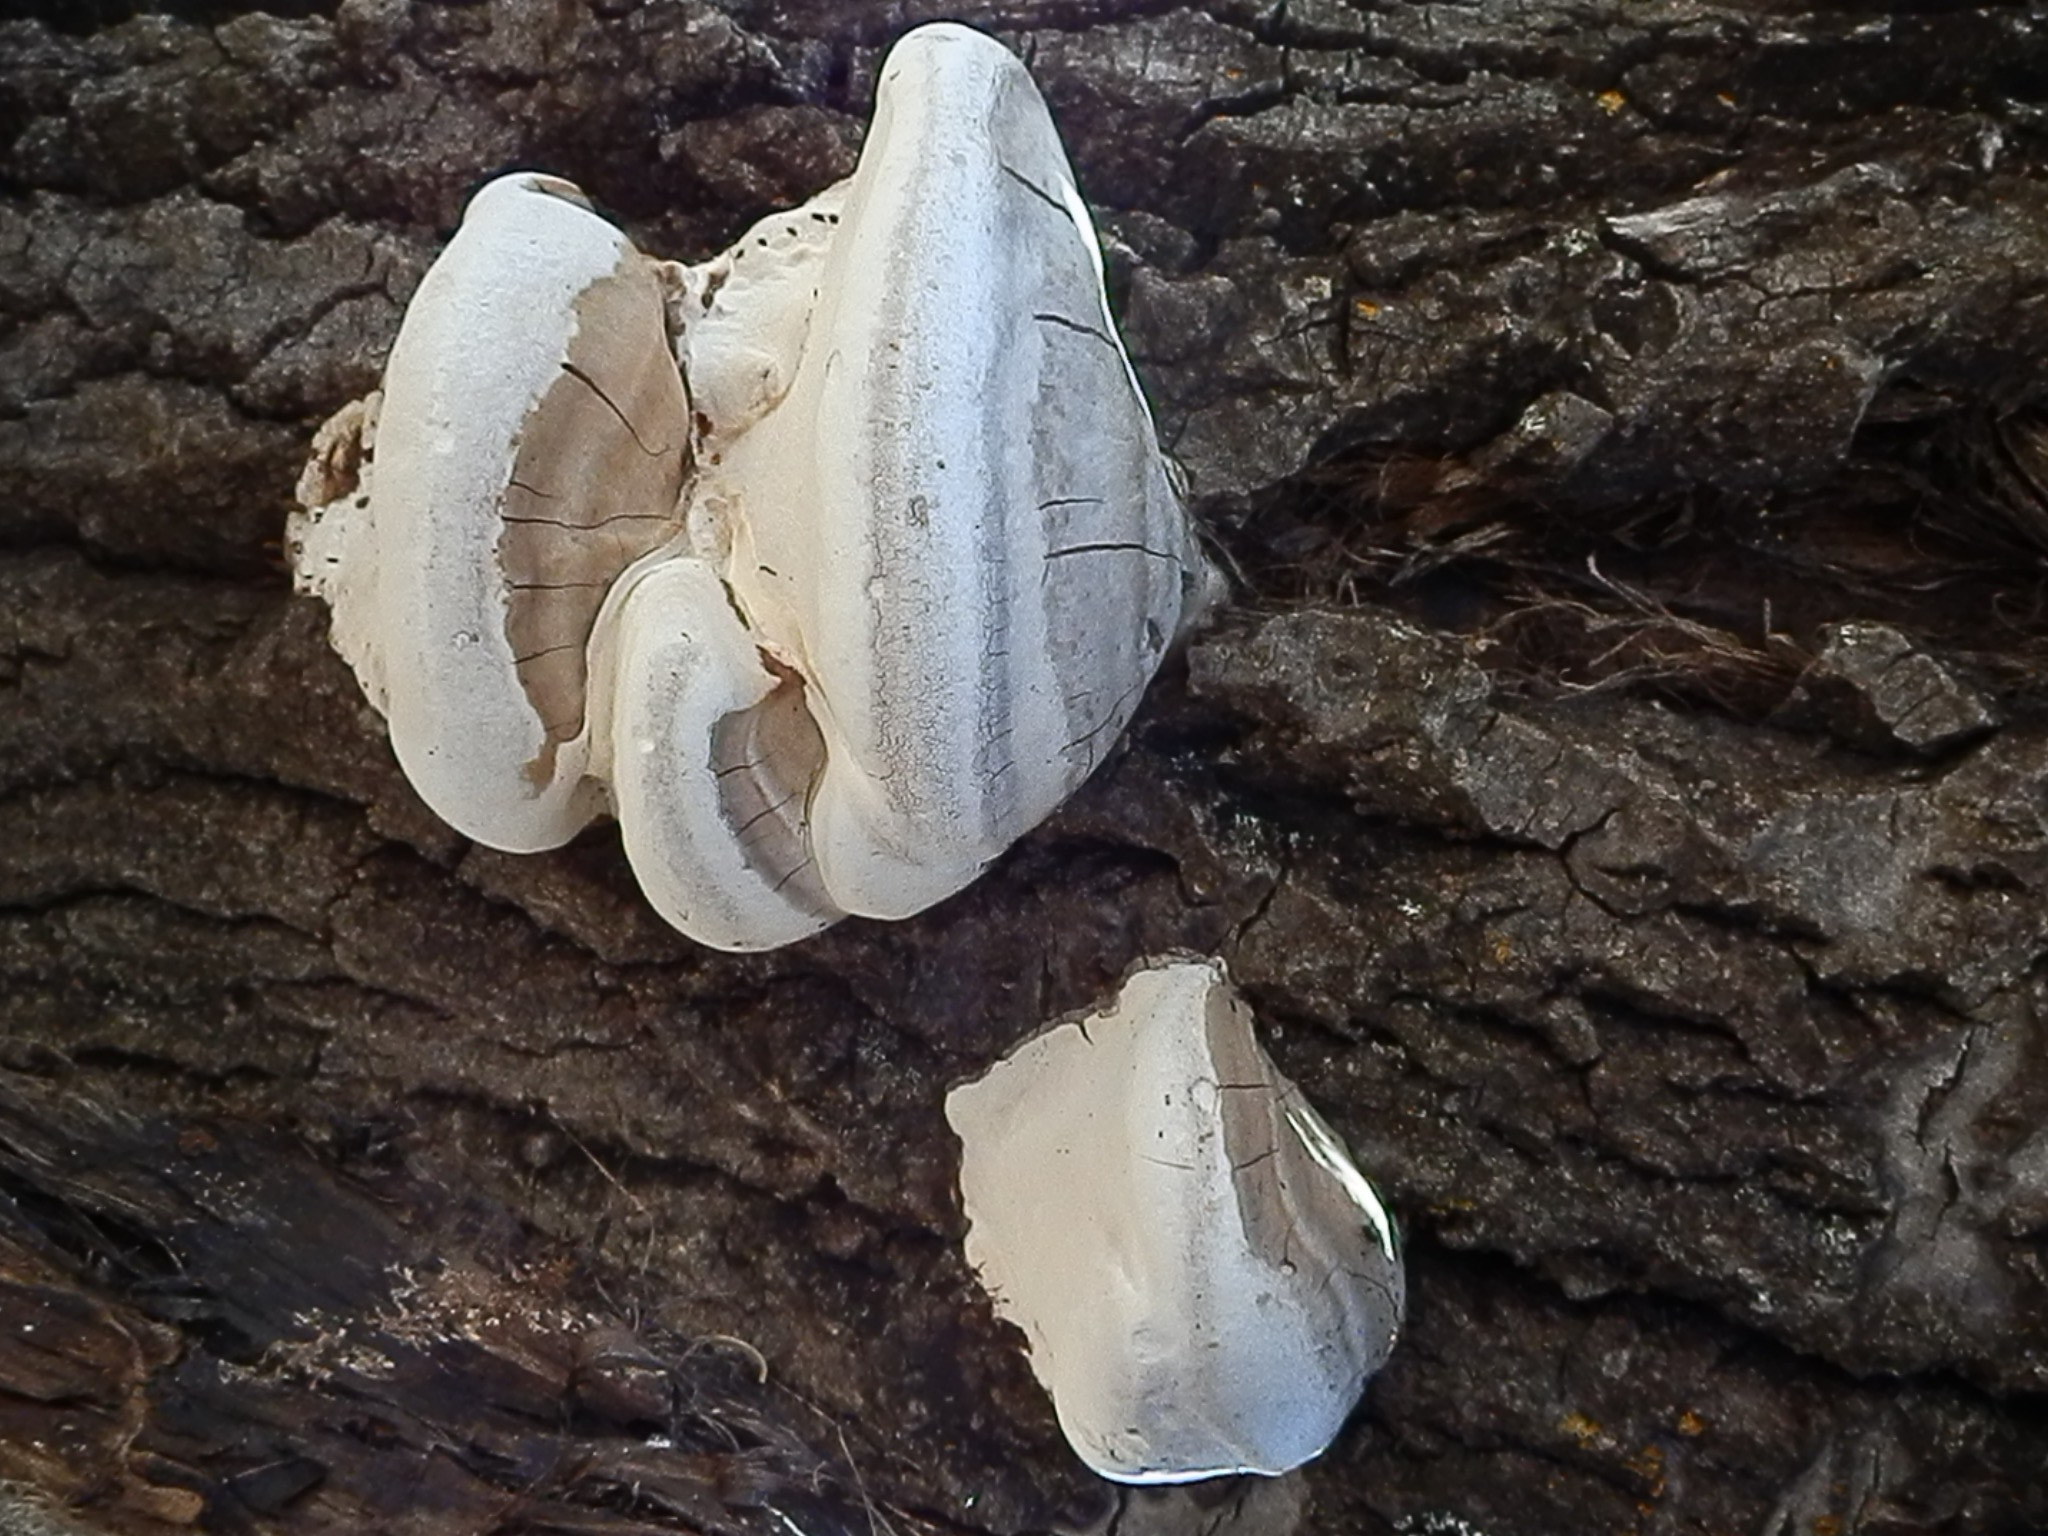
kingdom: Fungi
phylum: Basidiomycota
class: Agaricomycetes
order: Polyporales
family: Polyporaceae
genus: Ganoderma
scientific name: Ganoderma applanatum
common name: Artist's bracket
